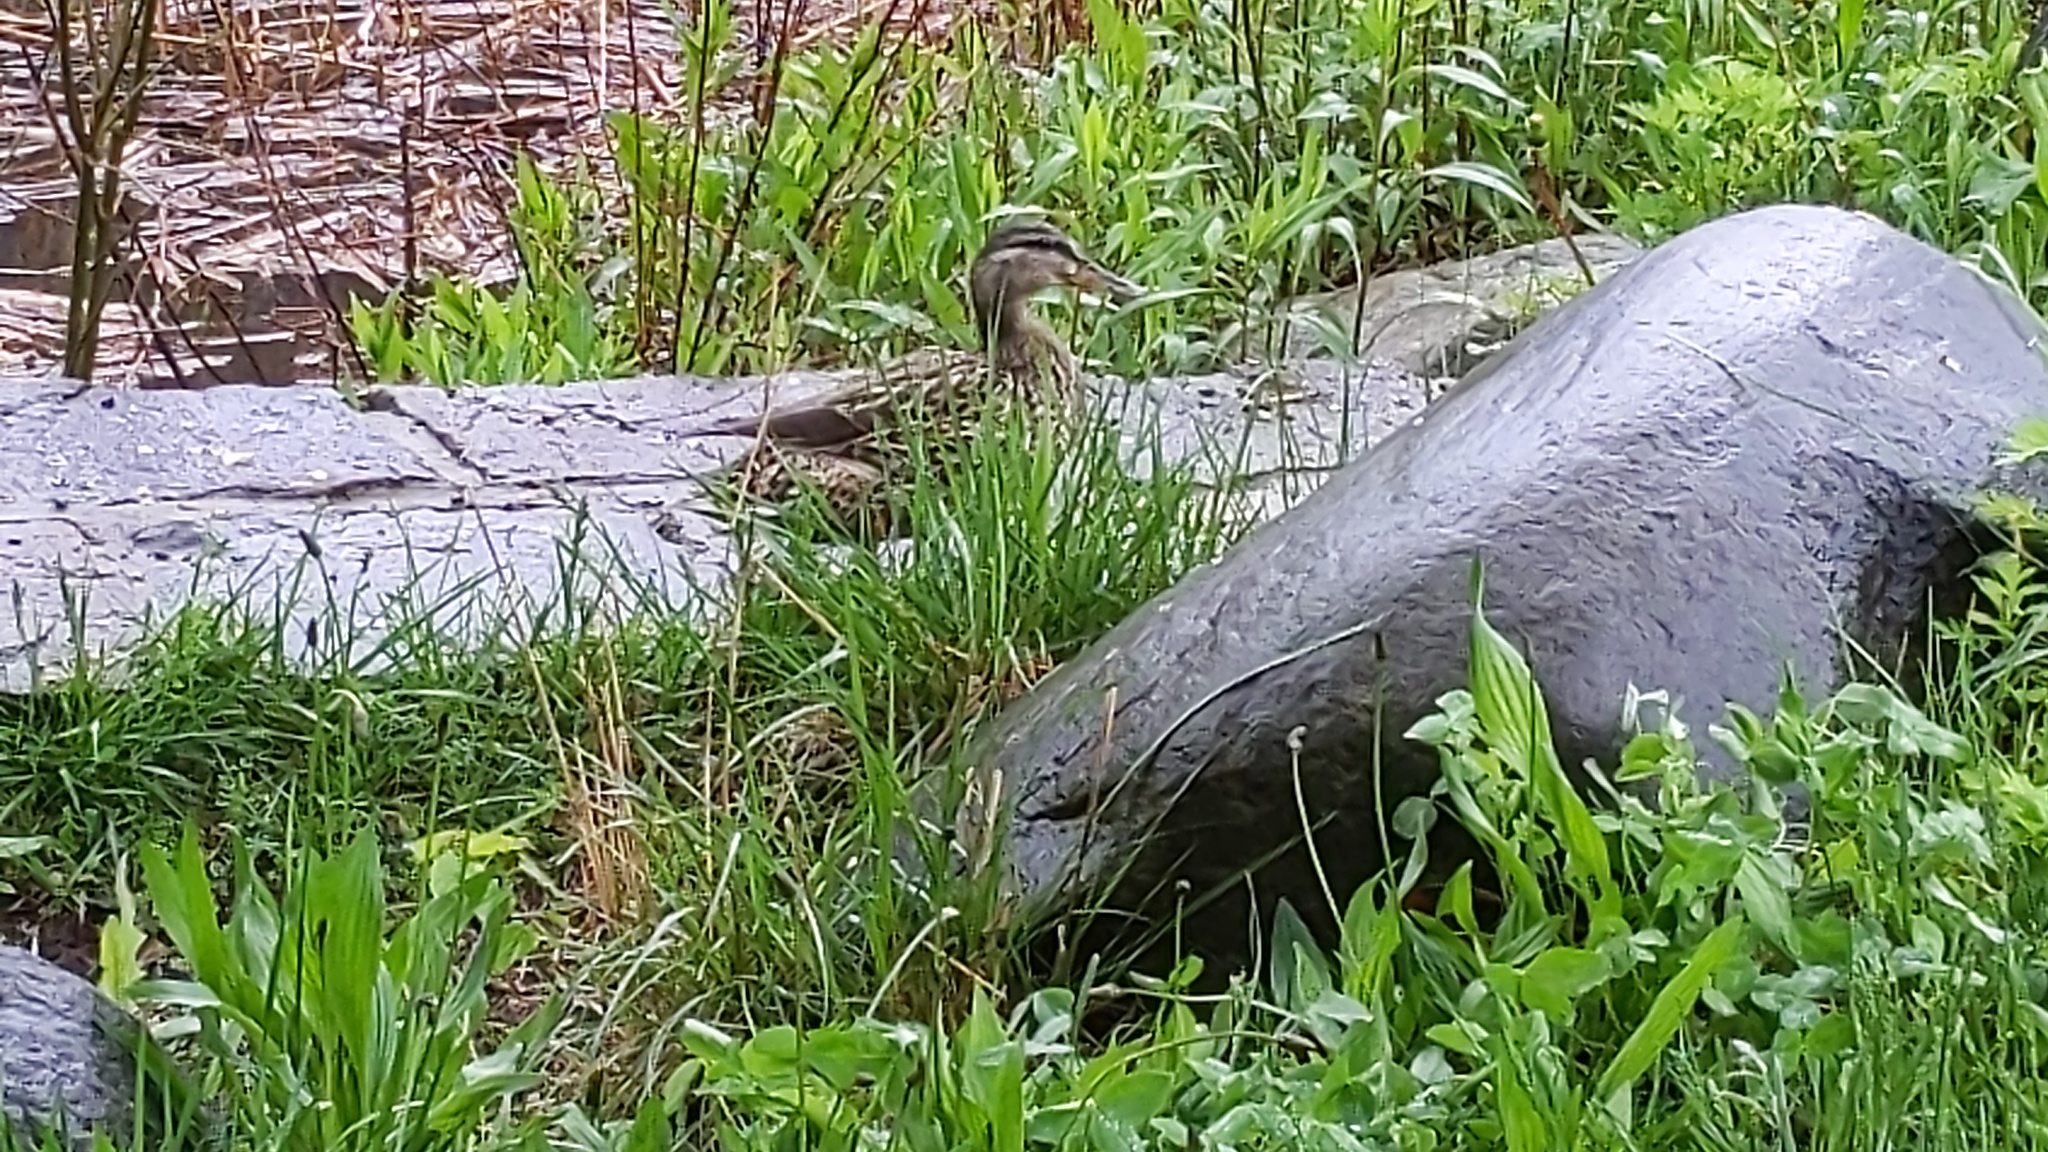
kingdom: Animalia
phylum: Chordata
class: Aves
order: Anseriformes
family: Anatidae
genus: Anas
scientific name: Anas platyrhynchos
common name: Mallard
